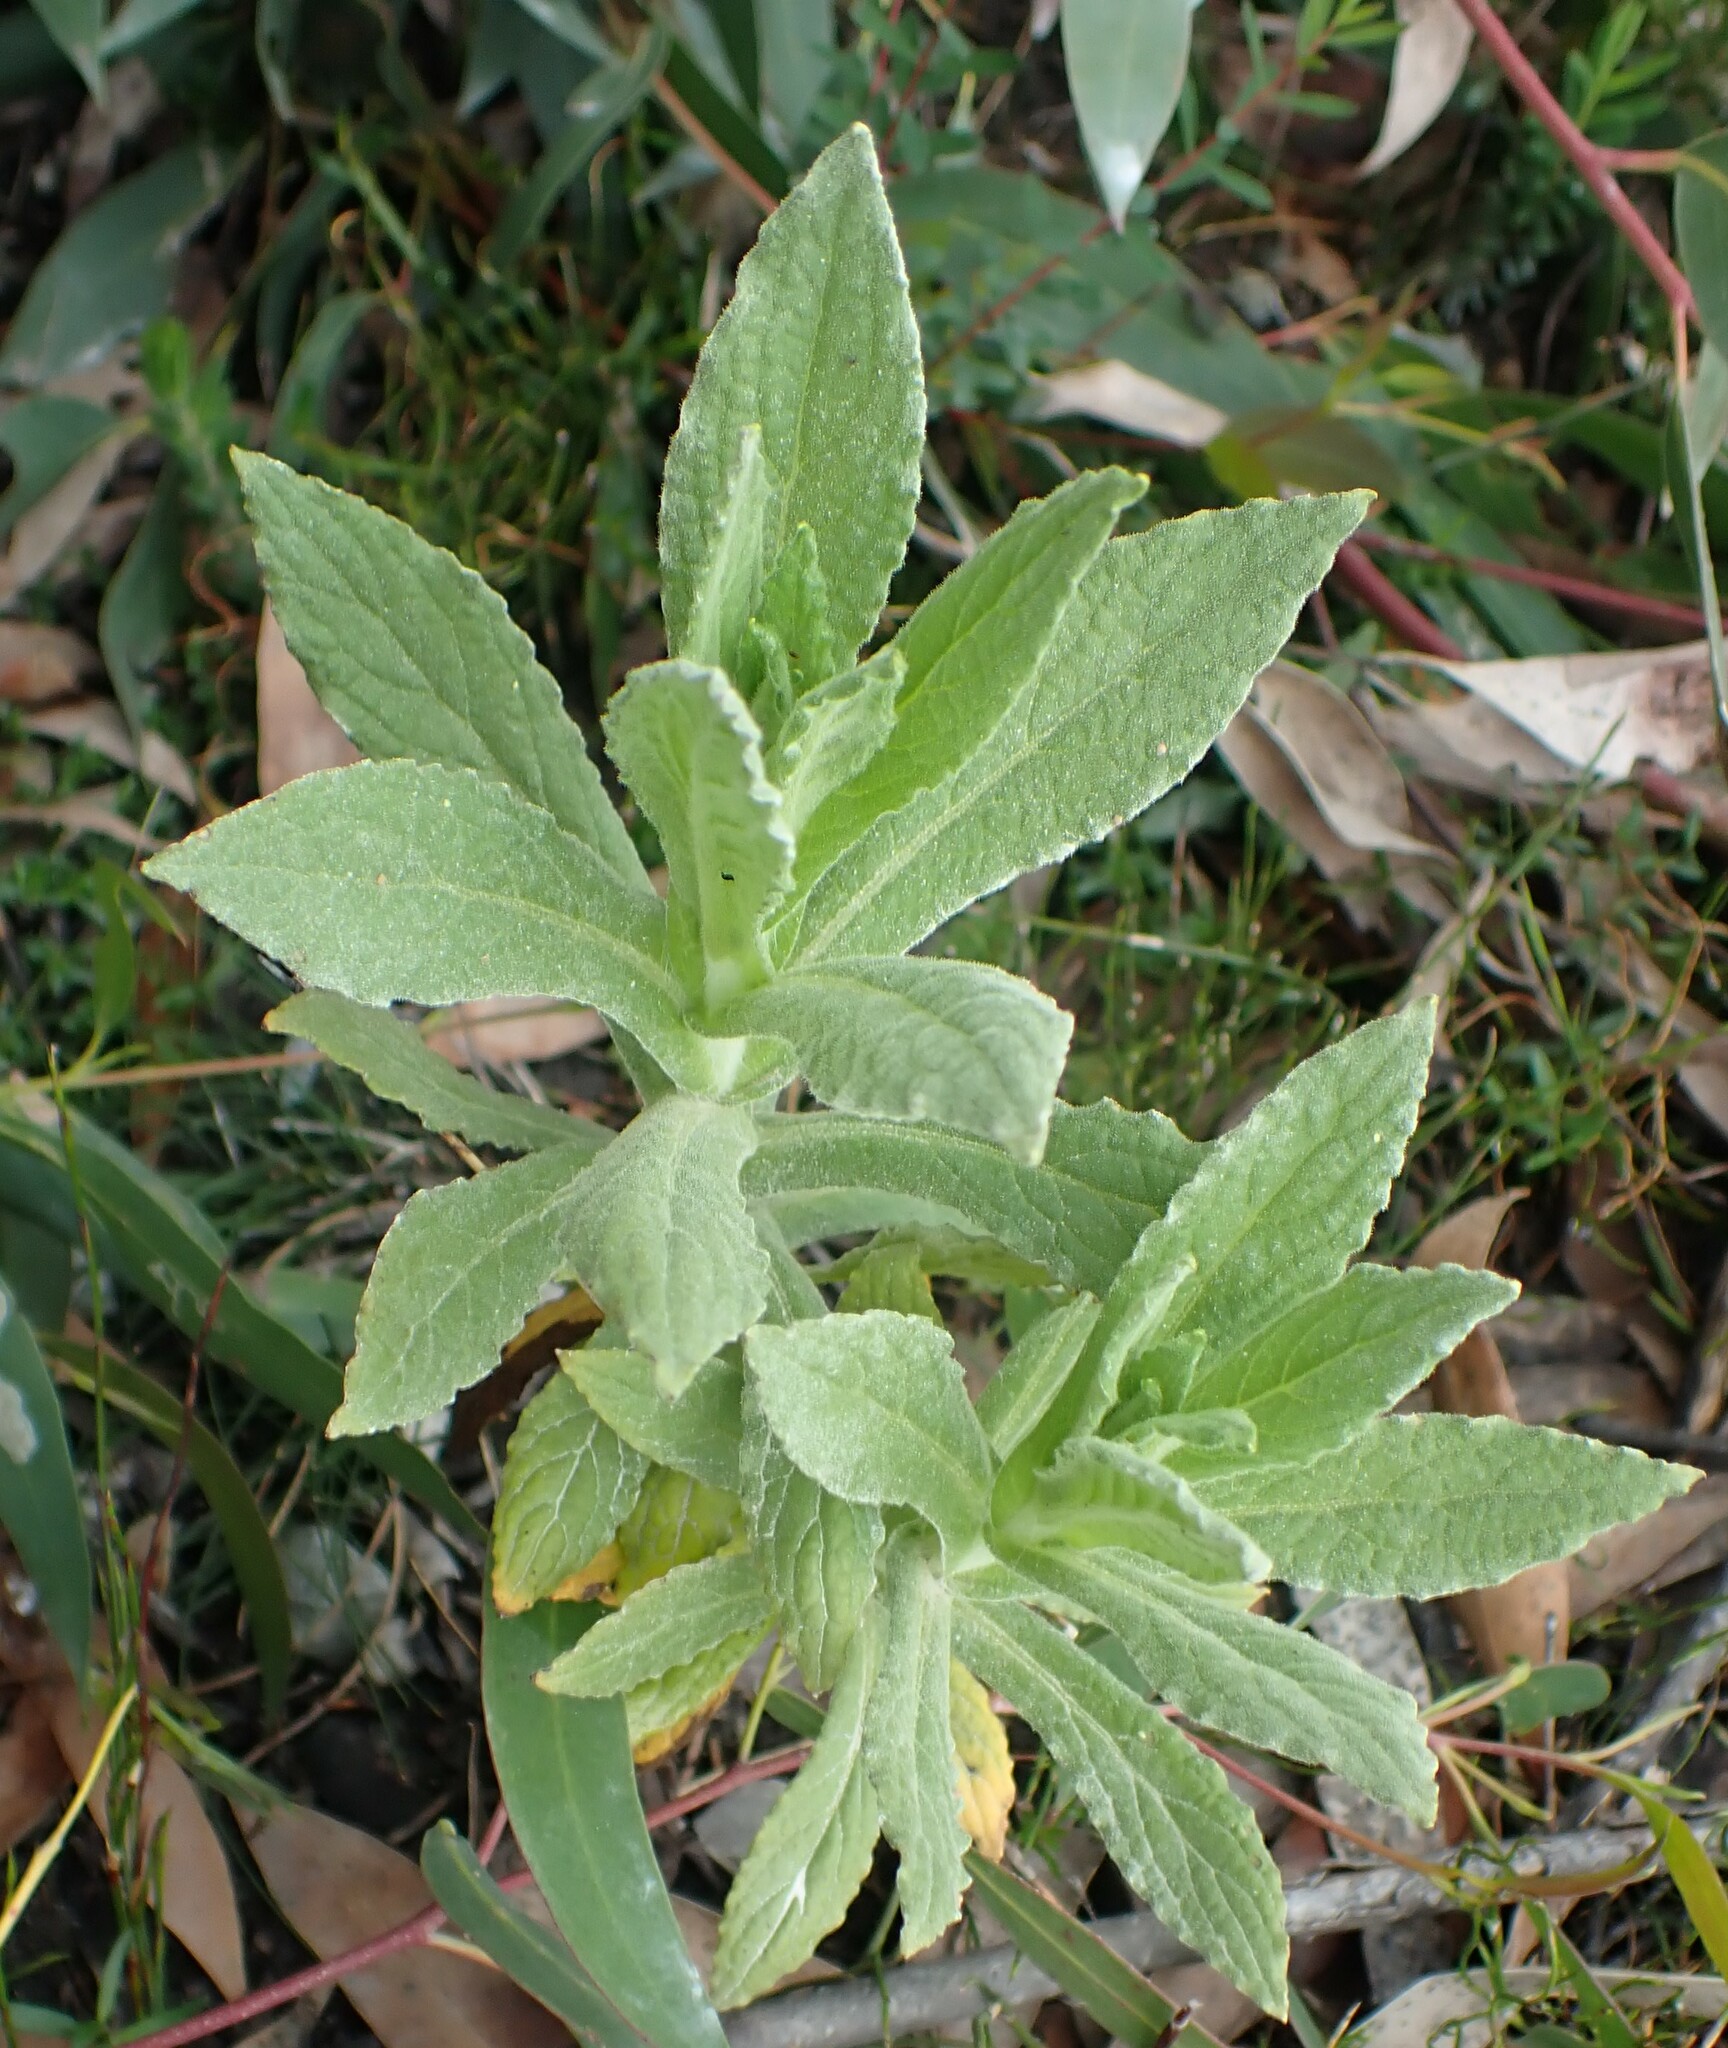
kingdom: Plantae
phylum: Tracheophyta
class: Magnoliopsida
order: Asterales
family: Asteraceae
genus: Apalochlamys
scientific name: Apalochlamys spectabilis
